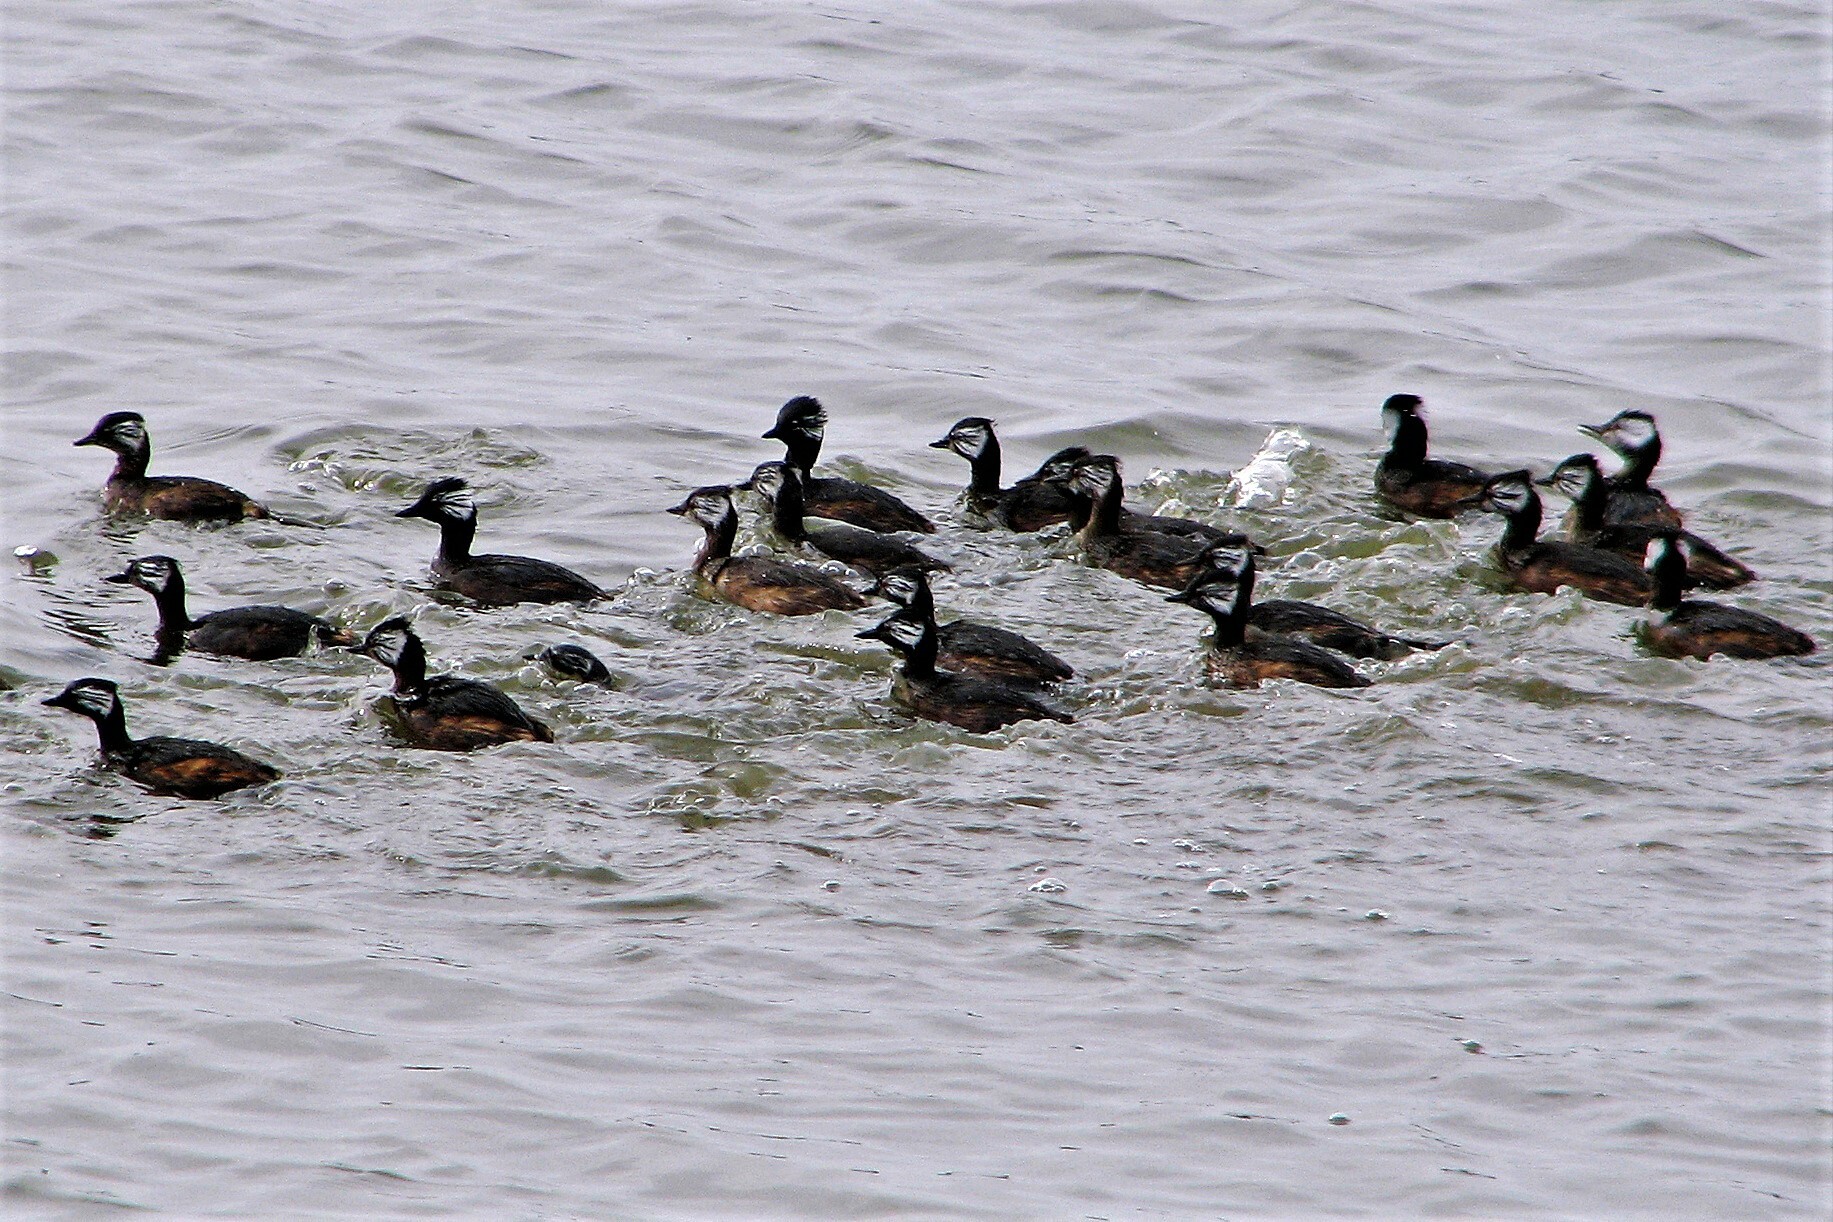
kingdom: Animalia
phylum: Chordata
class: Aves
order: Podicipediformes
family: Podicipedidae
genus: Rollandia
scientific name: Rollandia rolland
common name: White-tufted grebe
